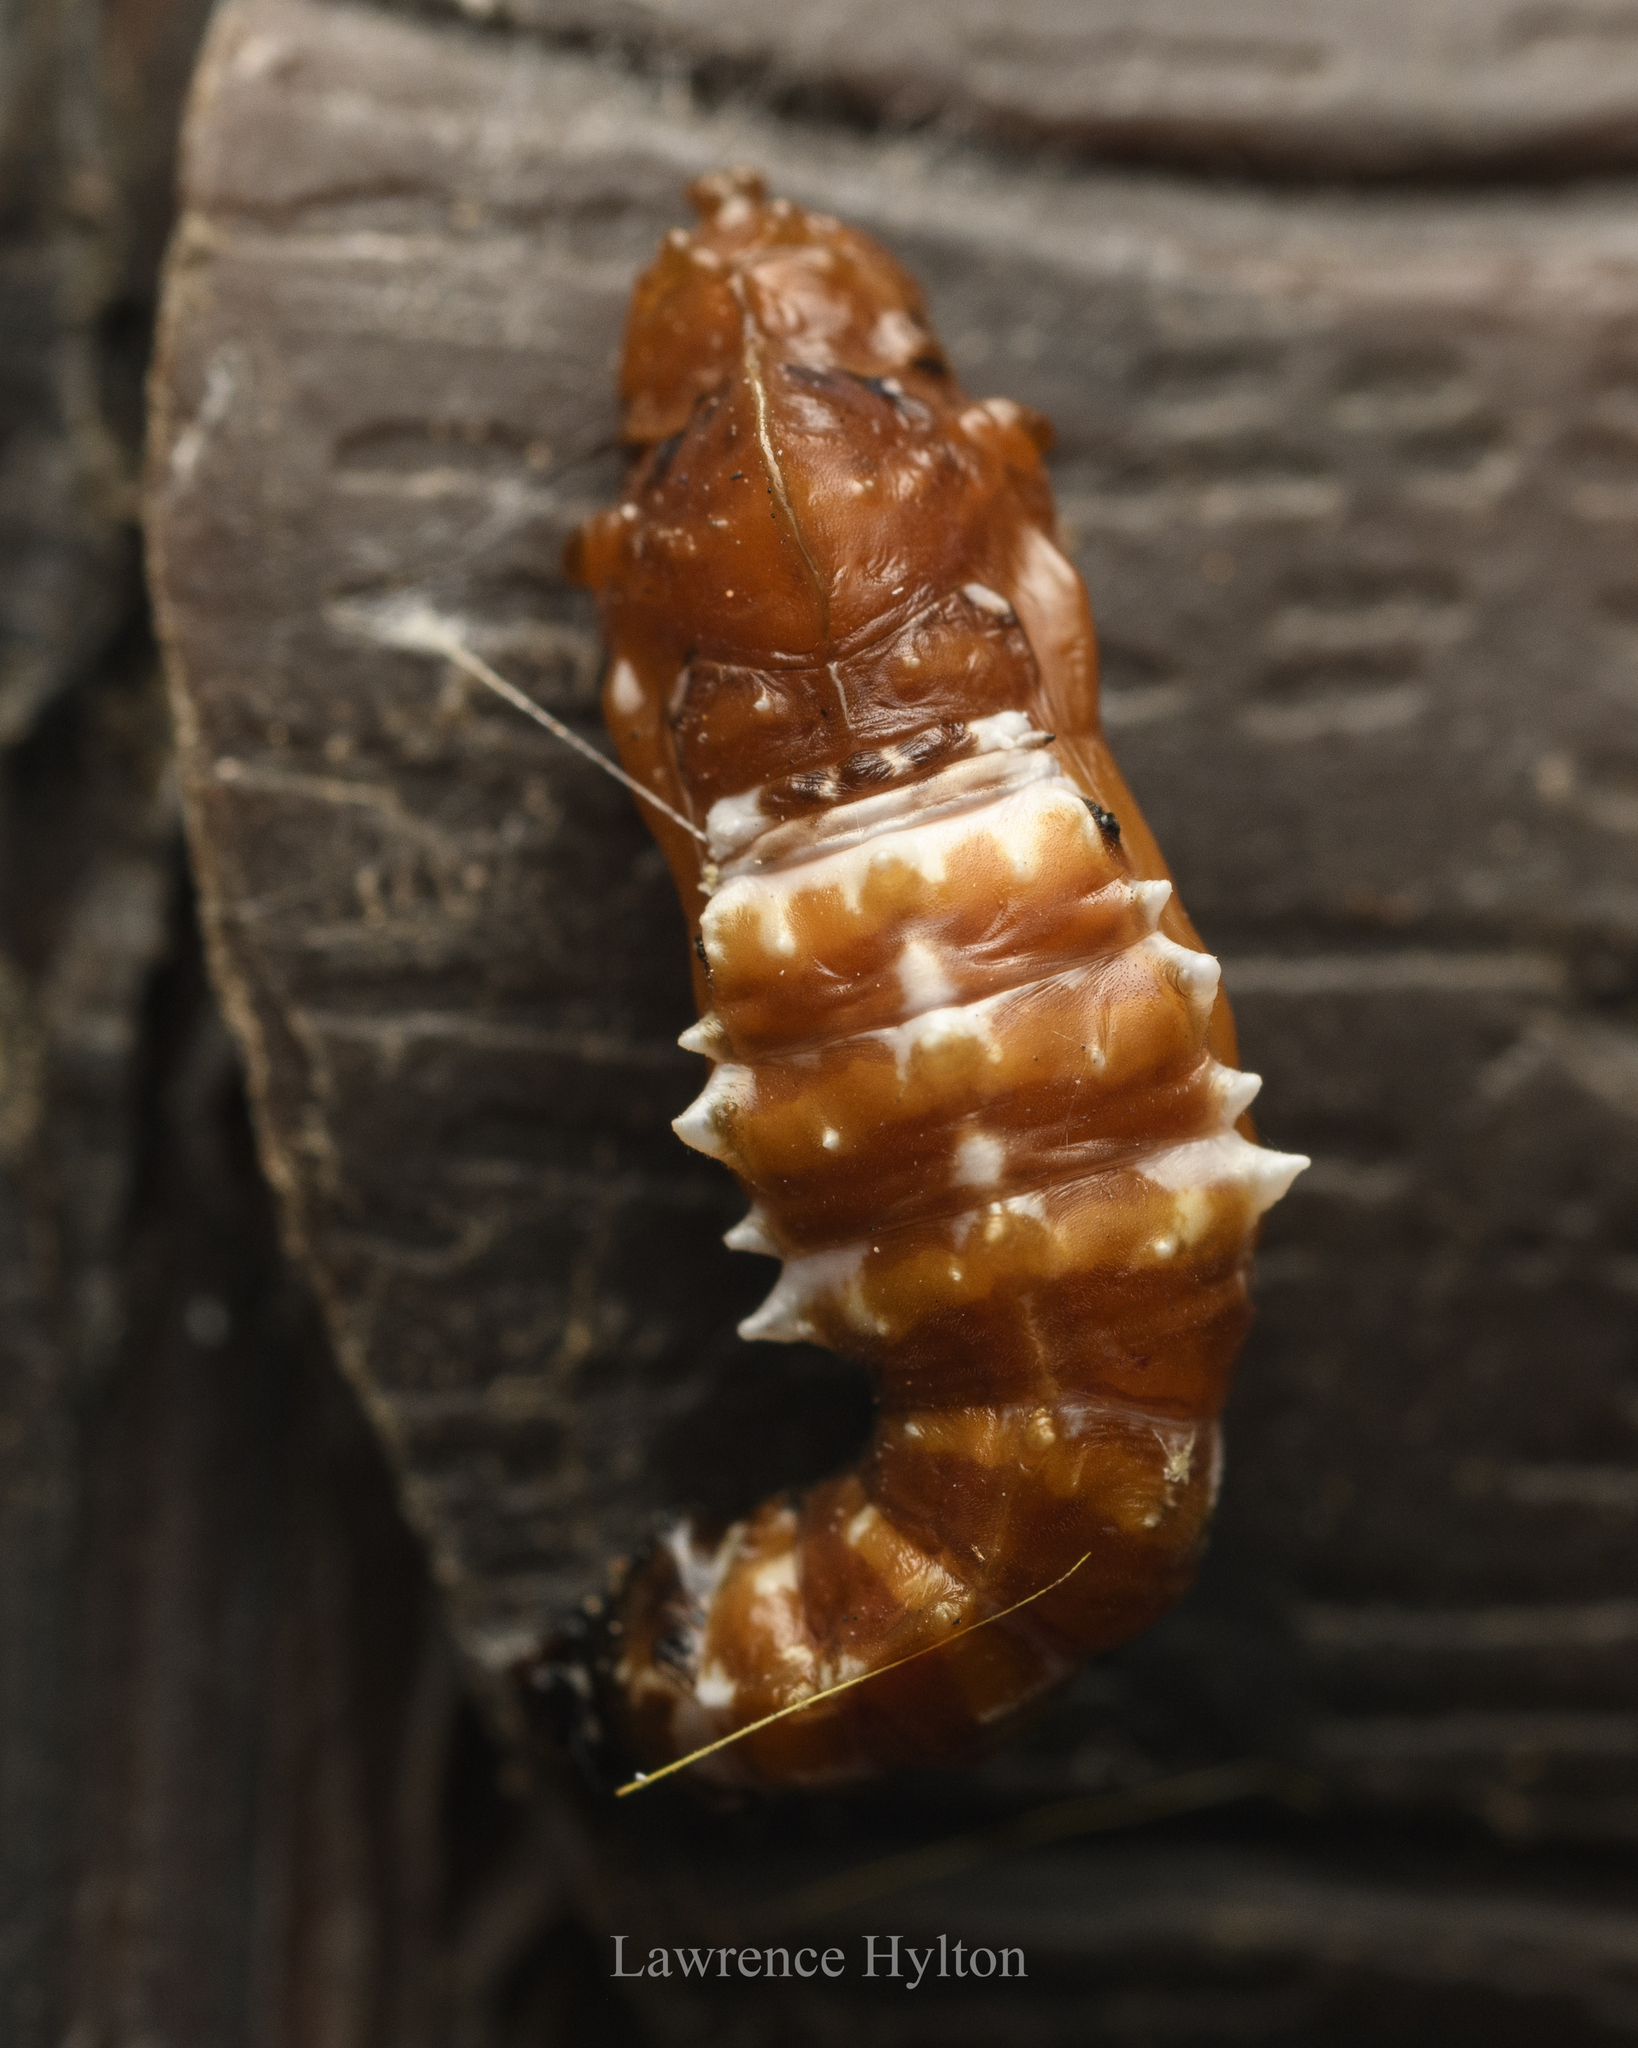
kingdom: Animalia
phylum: Arthropoda
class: Insecta
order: Lepidoptera
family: Pieridae
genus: Delias
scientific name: Delias pasithoe
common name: Red-base jezebel
